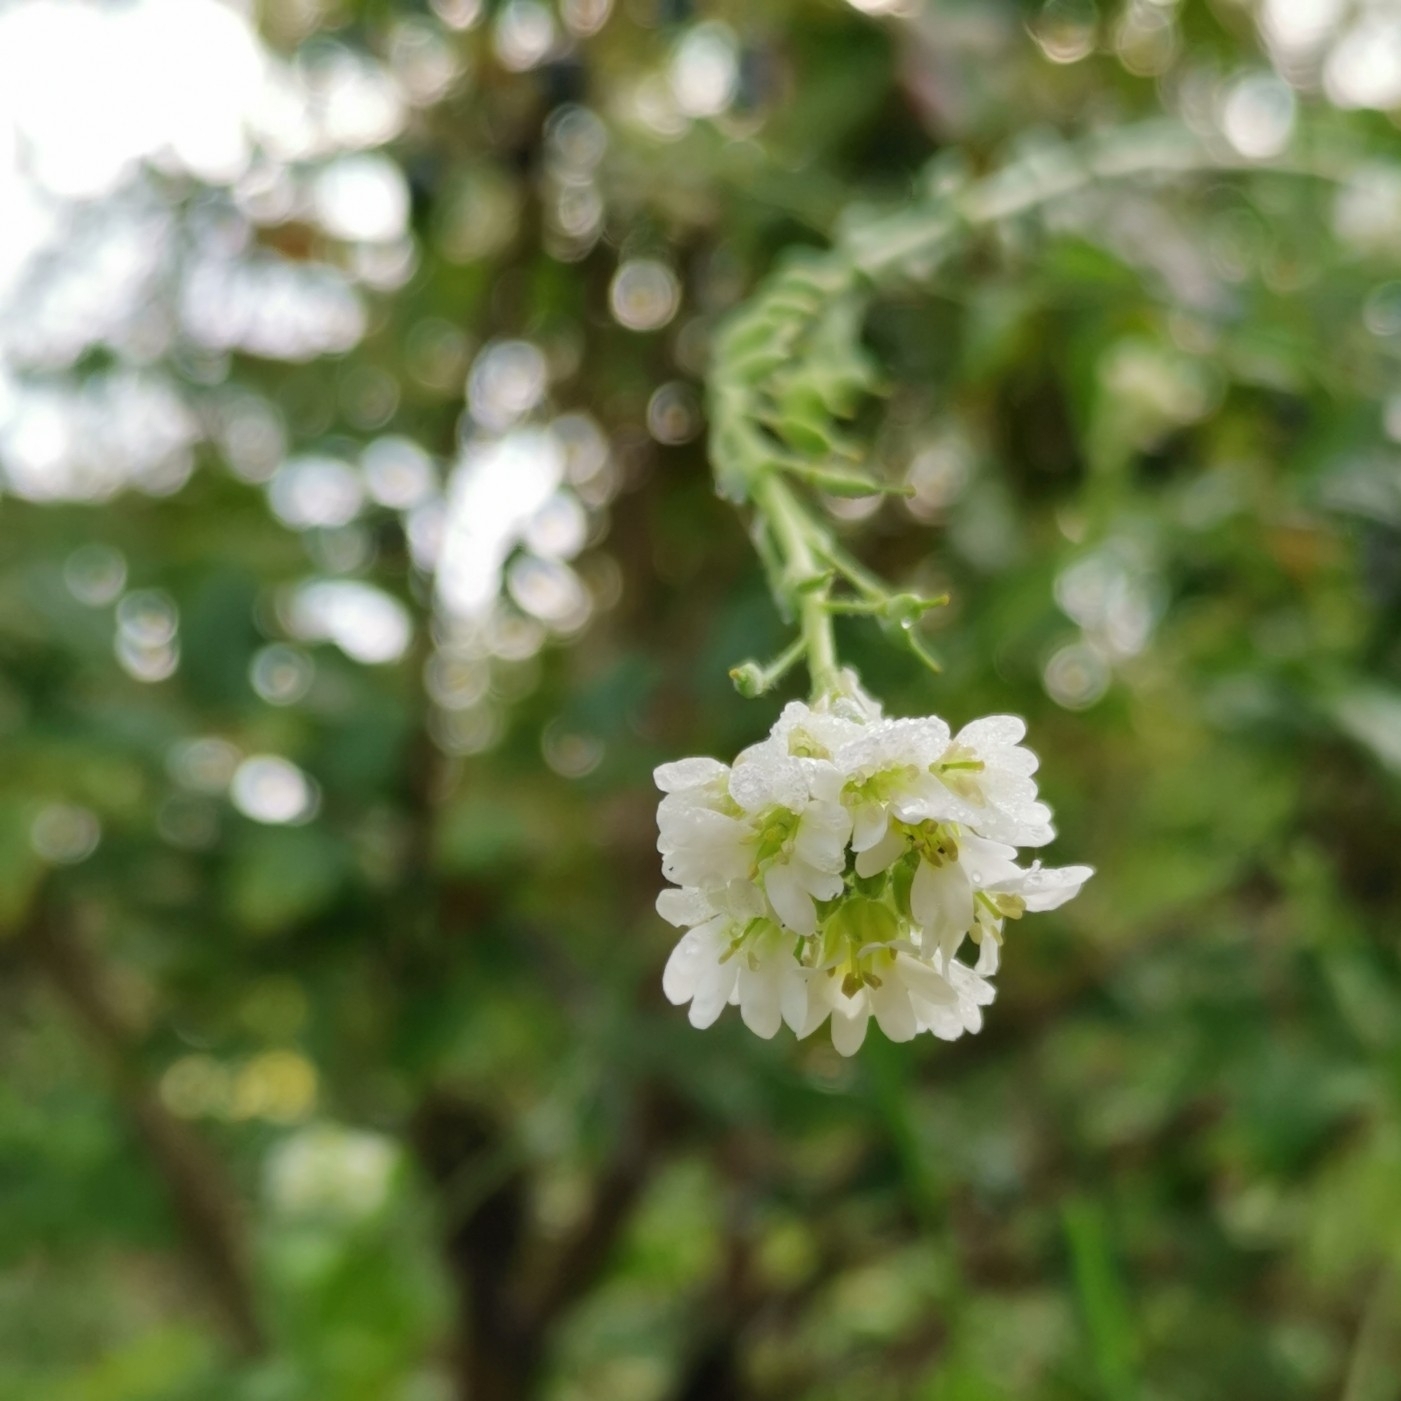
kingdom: Plantae
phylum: Tracheophyta
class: Magnoliopsida
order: Brassicales
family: Brassicaceae
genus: Berteroa
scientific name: Berteroa incana
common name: Hoary alison
